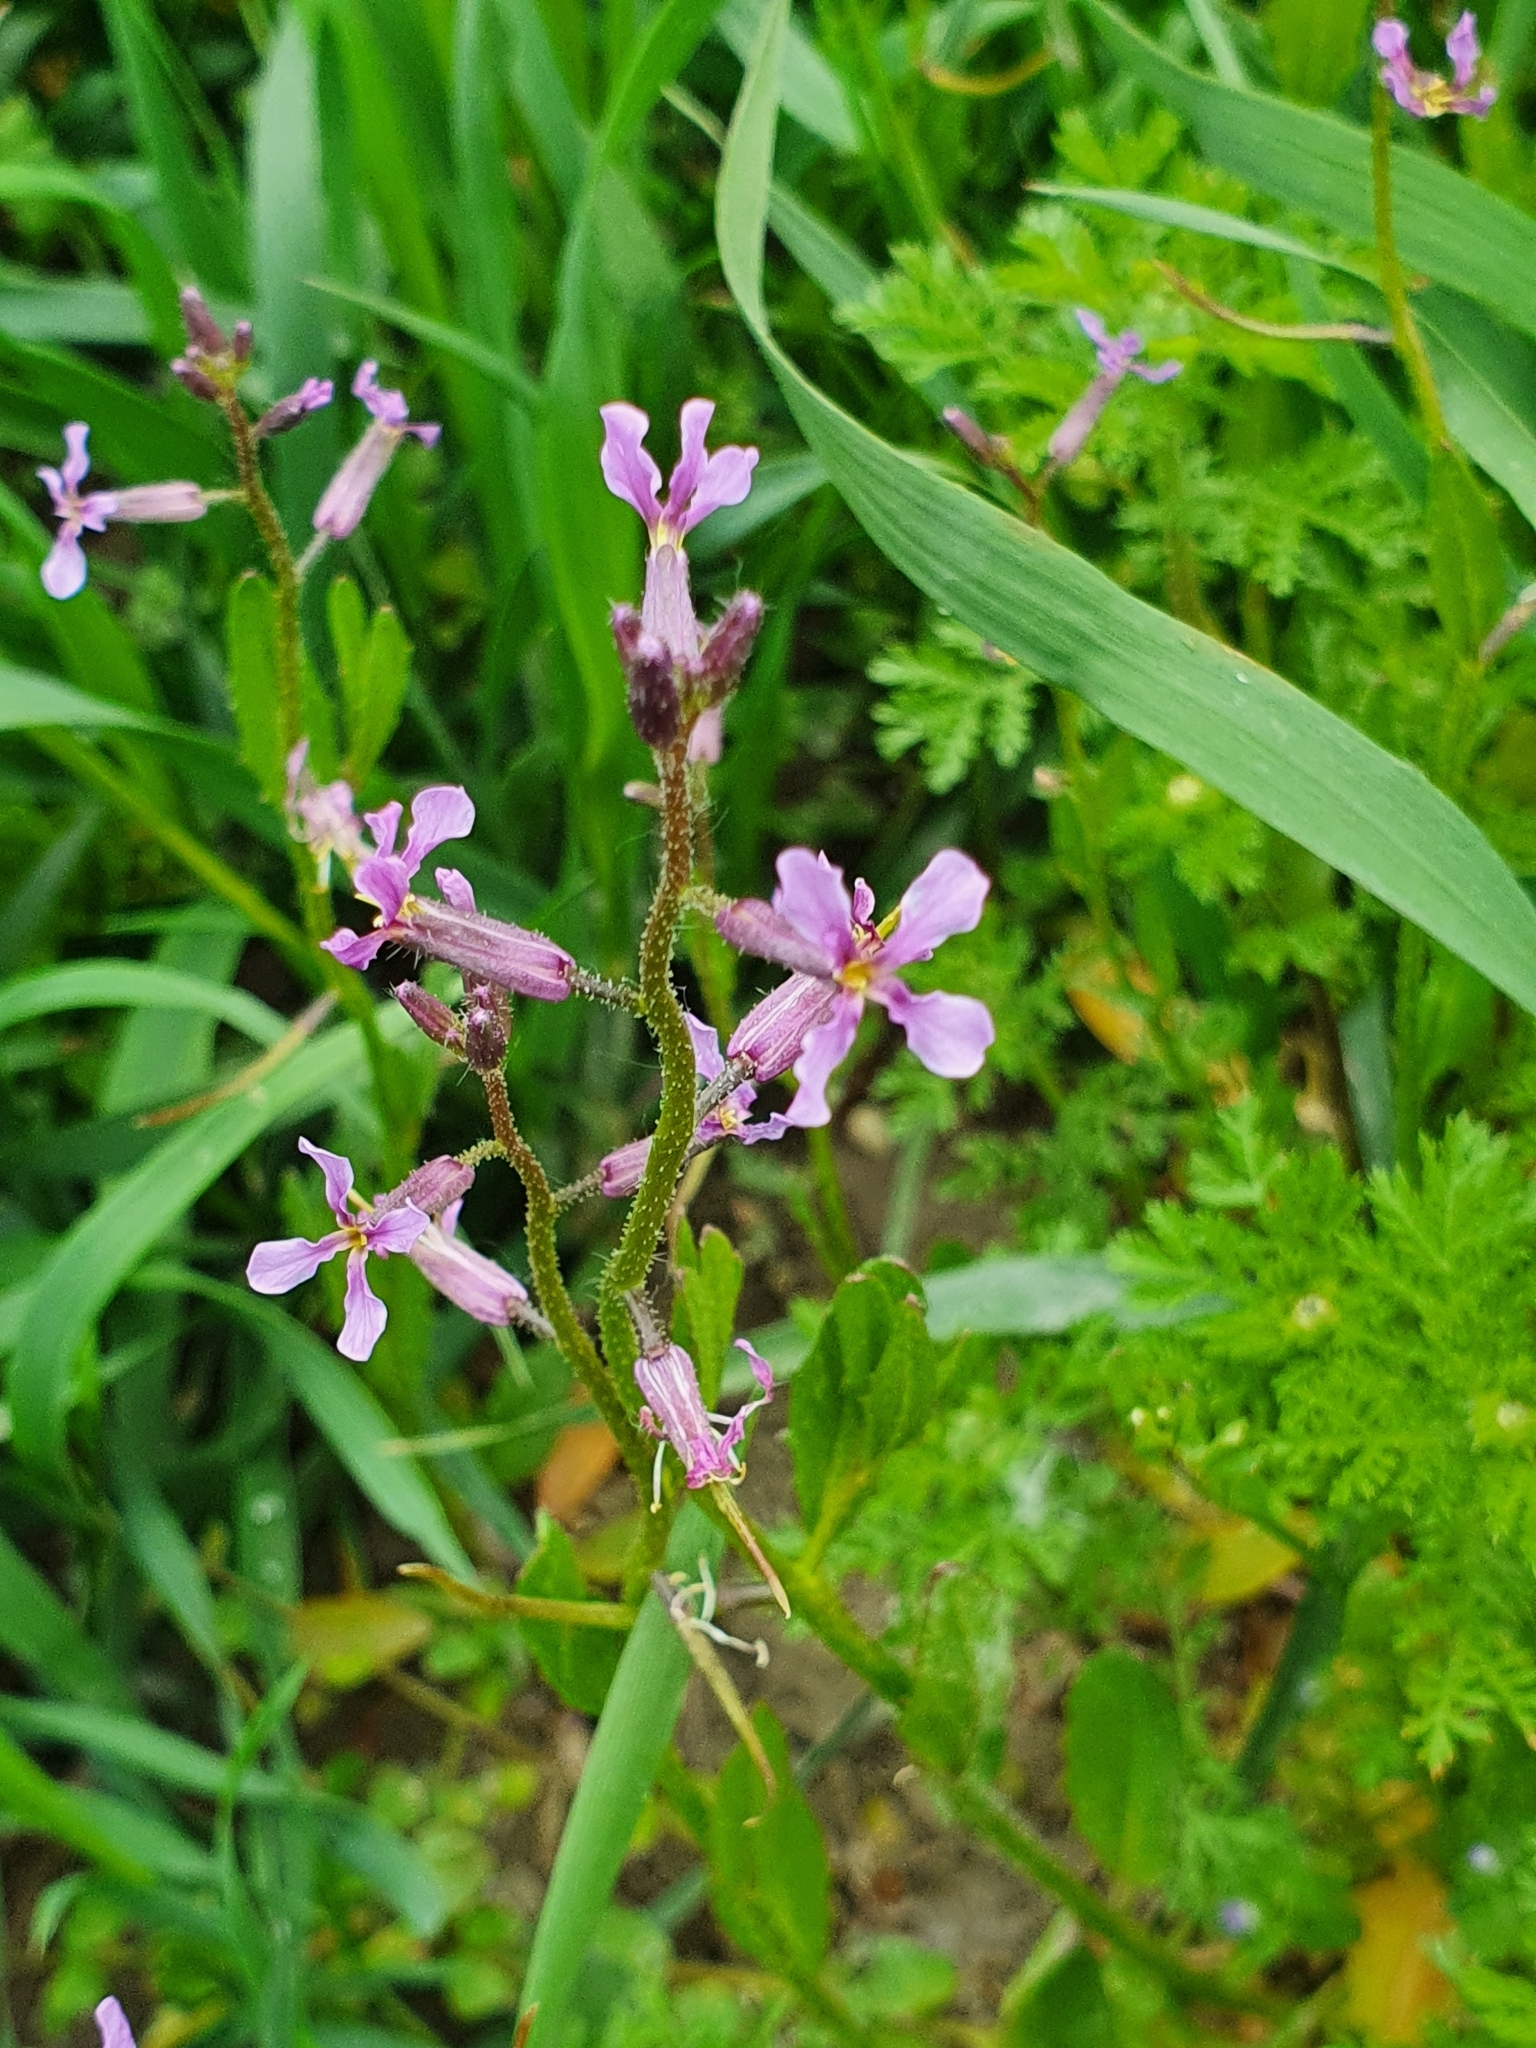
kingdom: Plantae
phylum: Tracheophyta
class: Magnoliopsida
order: Brassicales
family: Brassicaceae
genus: Chorispora
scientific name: Chorispora tenella
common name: Crossflower
